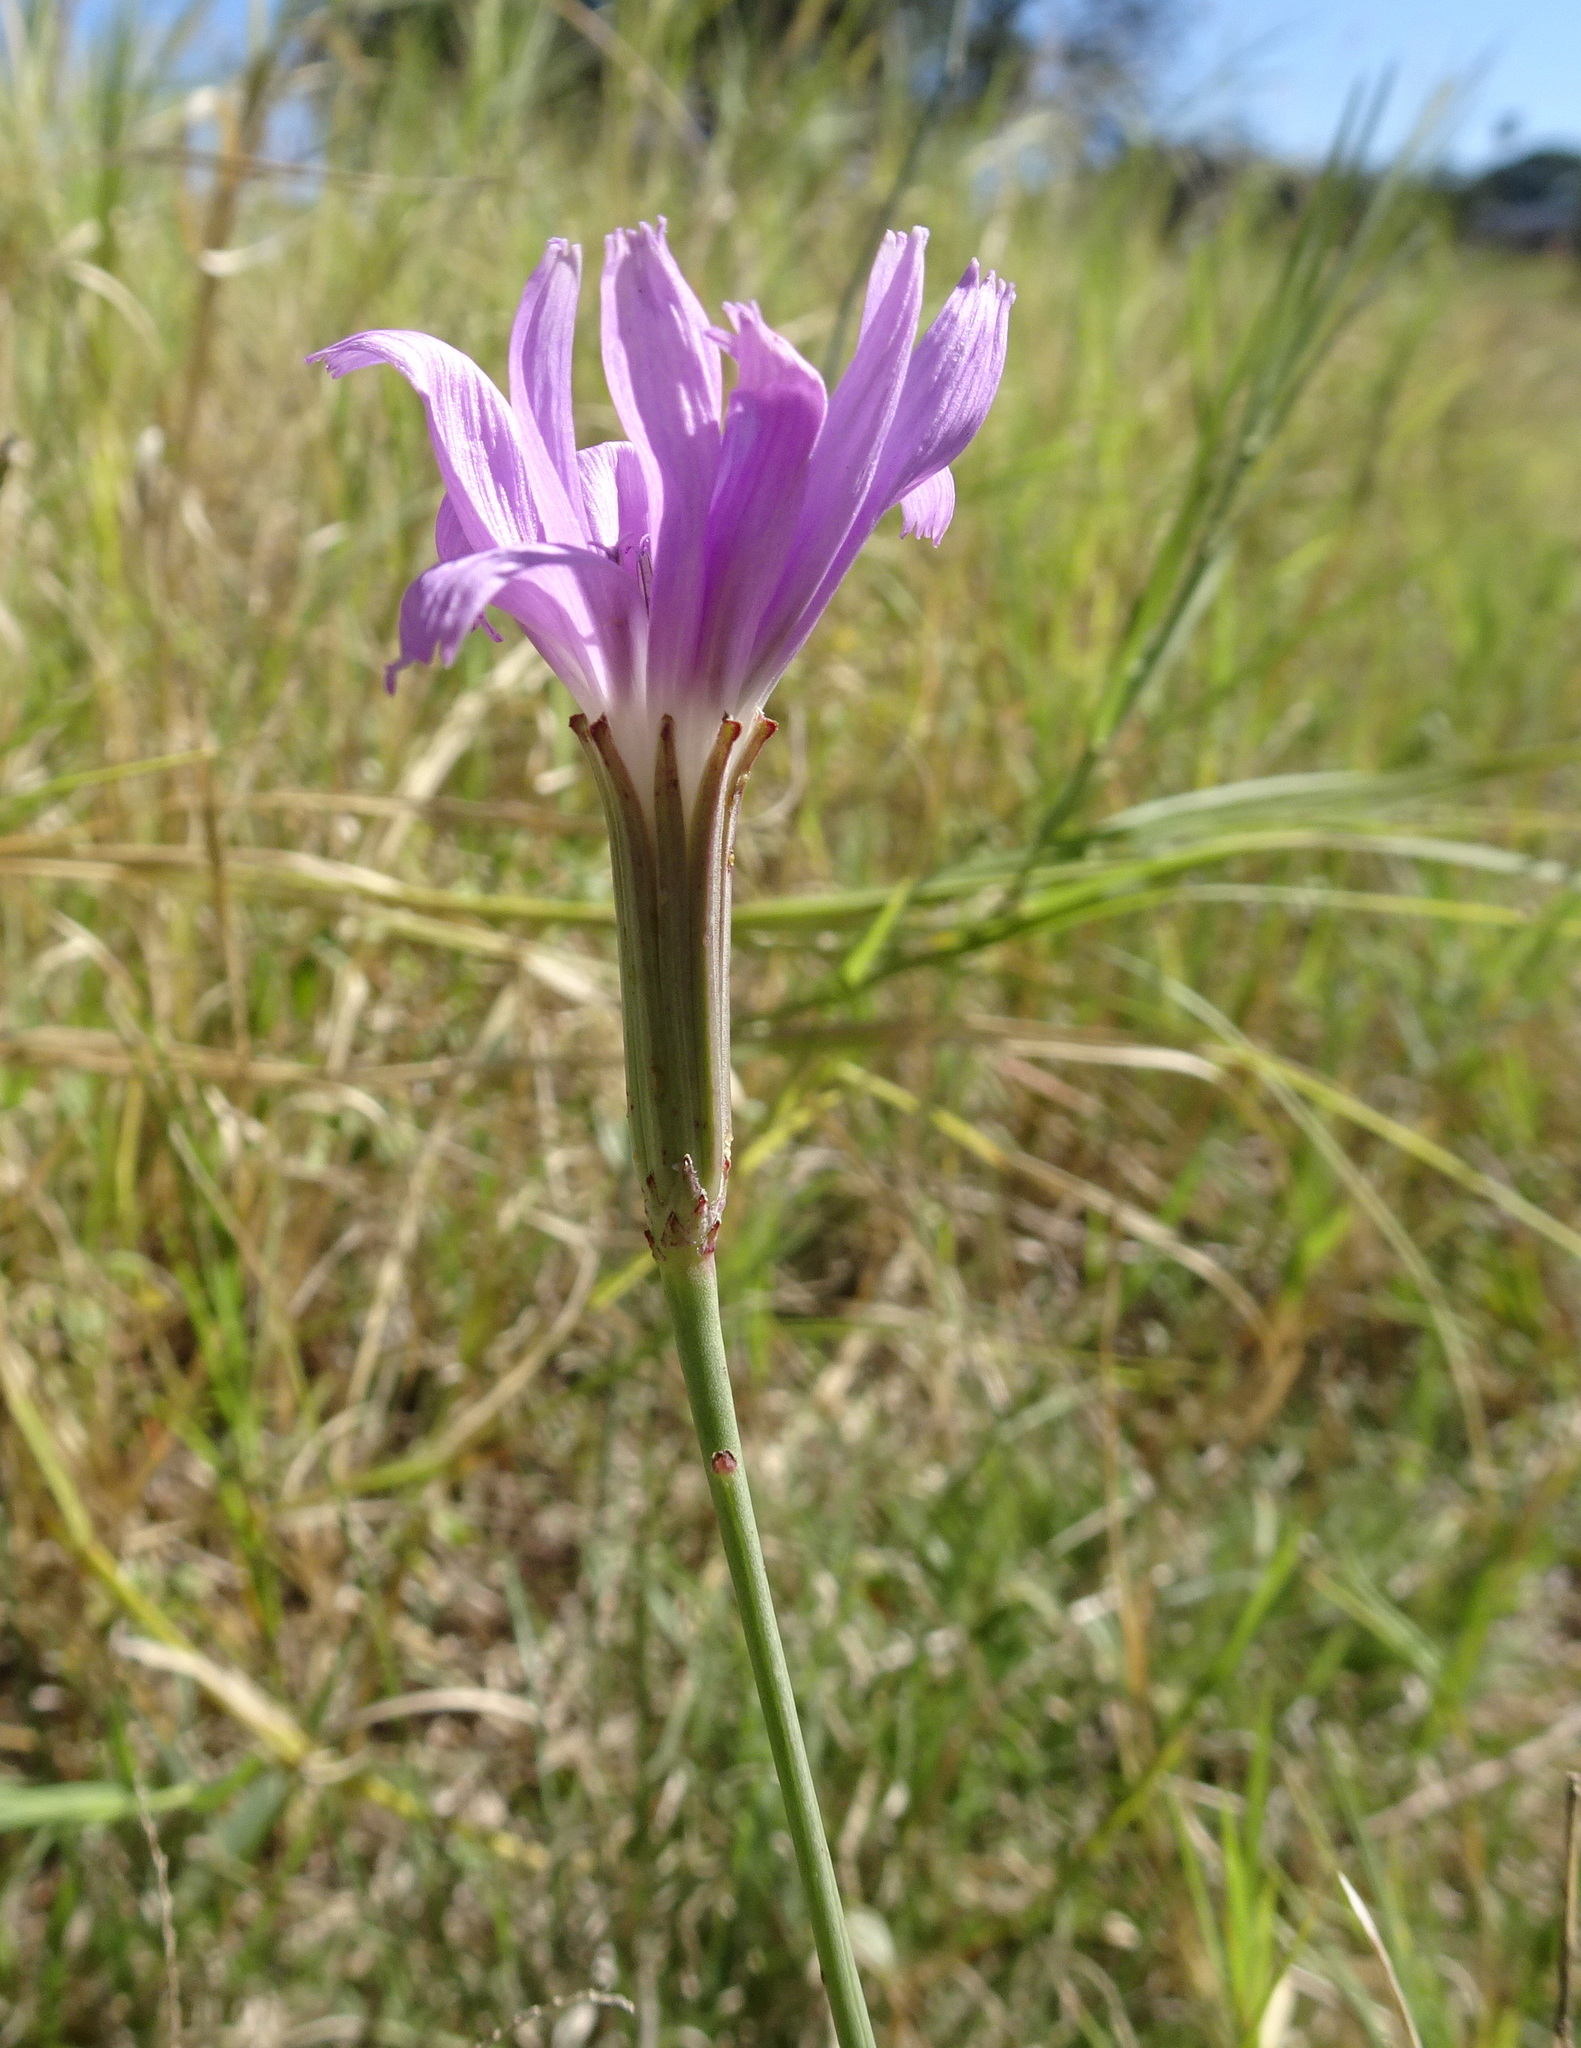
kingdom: Plantae
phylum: Tracheophyta
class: Magnoliopsida
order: Asterales
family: Asteraceae
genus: Lygodesmia
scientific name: Lygodesmia texana
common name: Texas skeleton-plant
